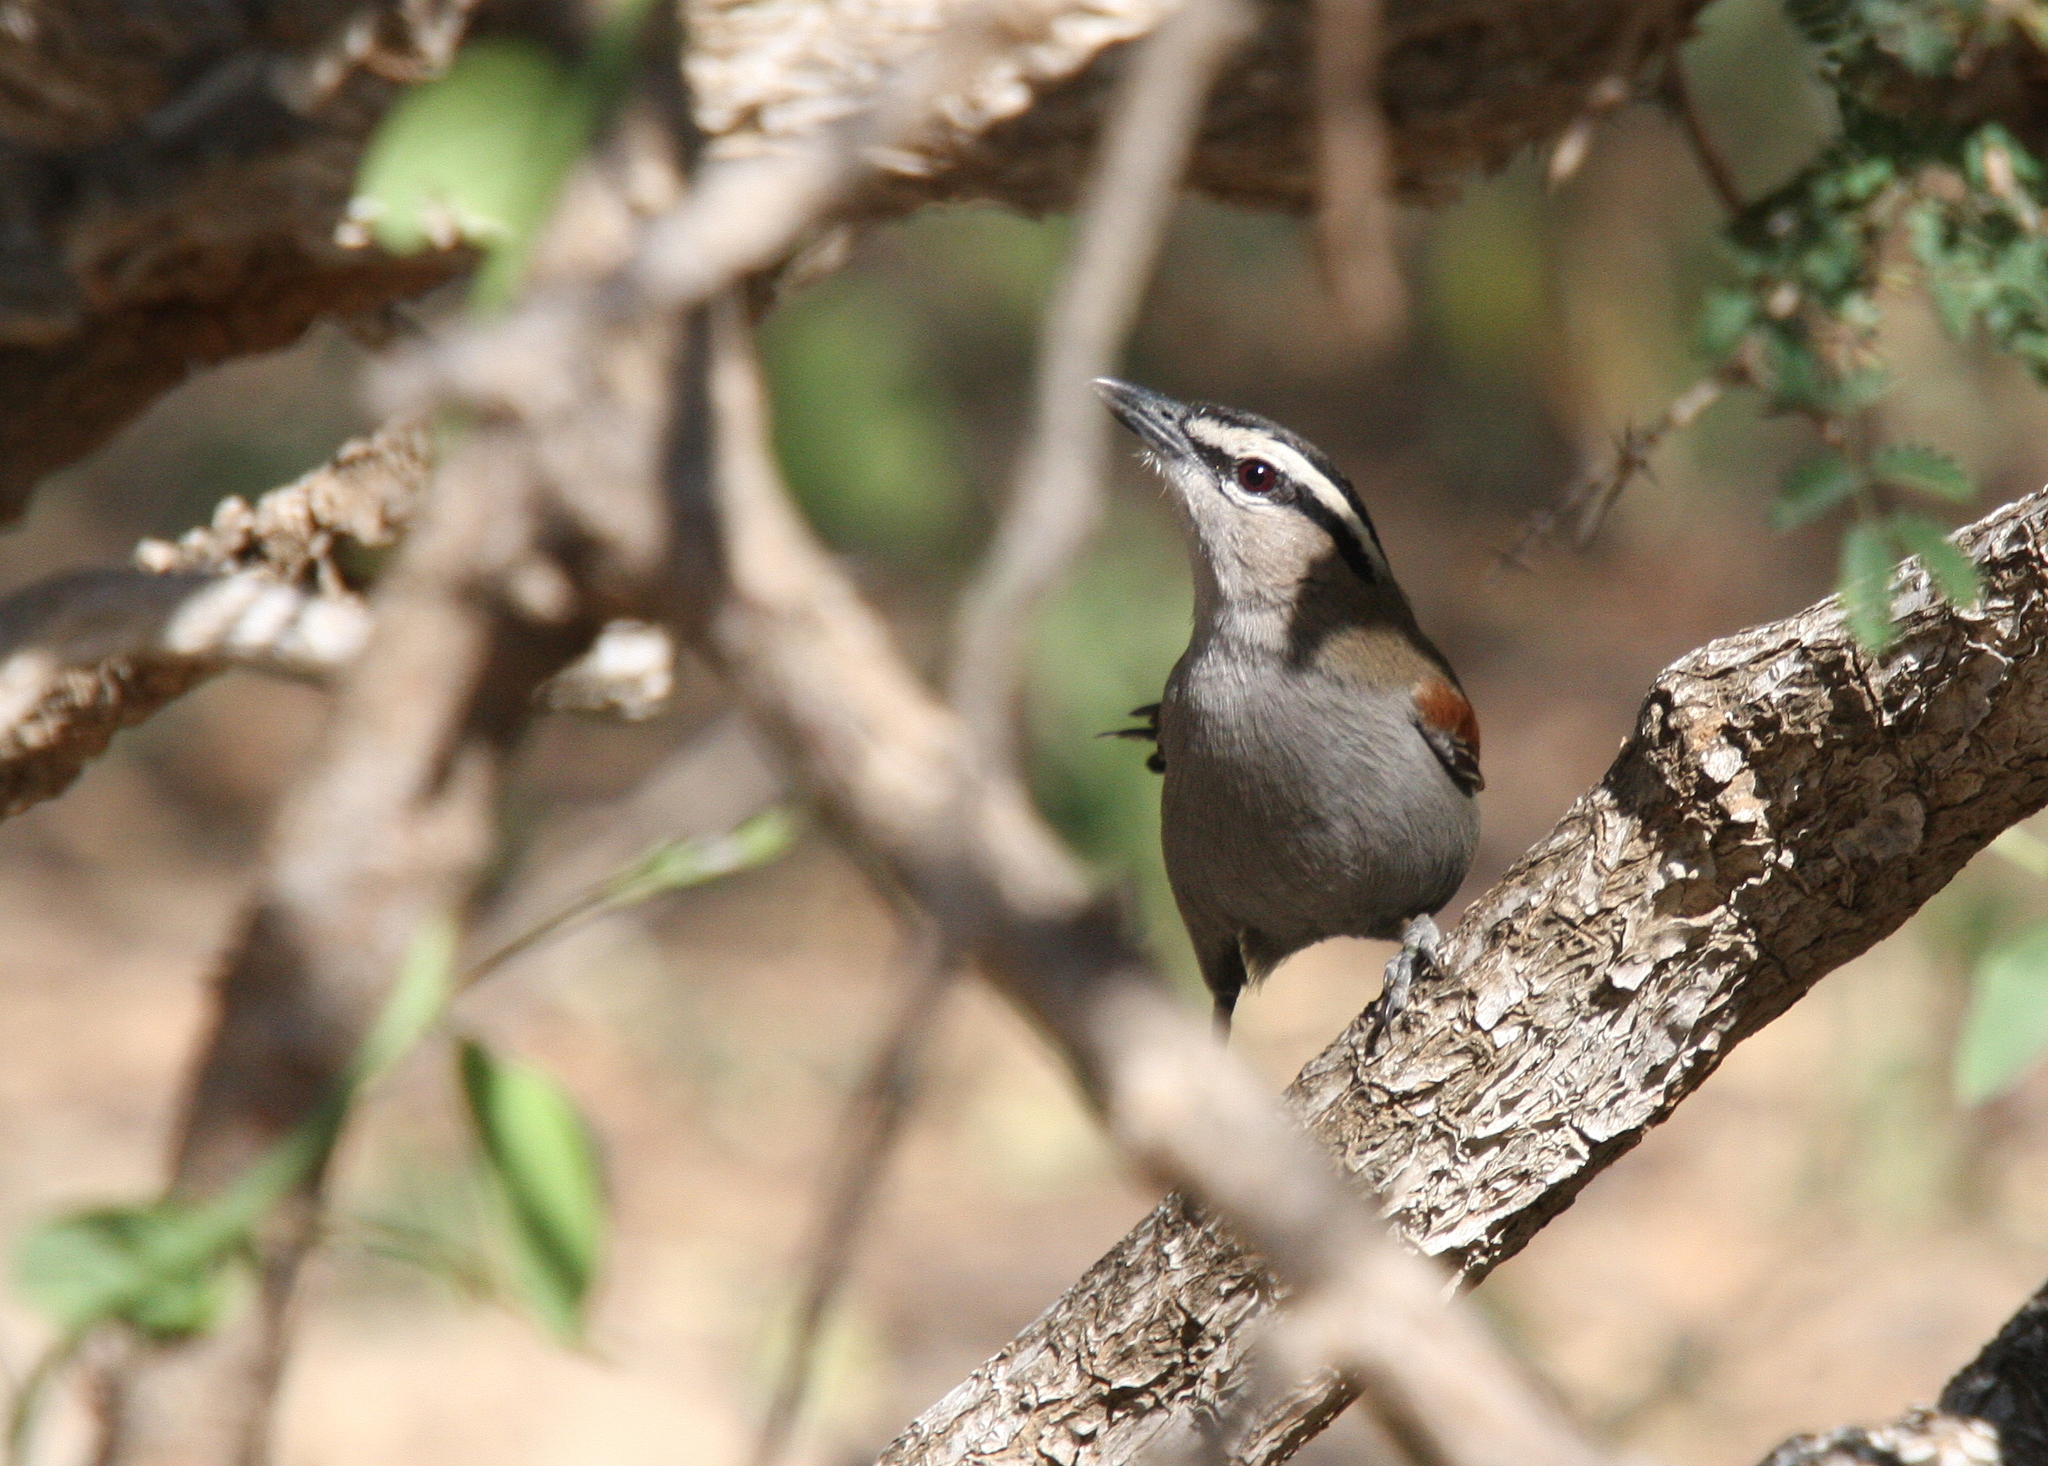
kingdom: Animalia
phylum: Chordata
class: Aves
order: Passeriformes
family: Malaconotidae
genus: Tchagra
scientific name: Tchagra senegalus
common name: Black-crowned tchagra
